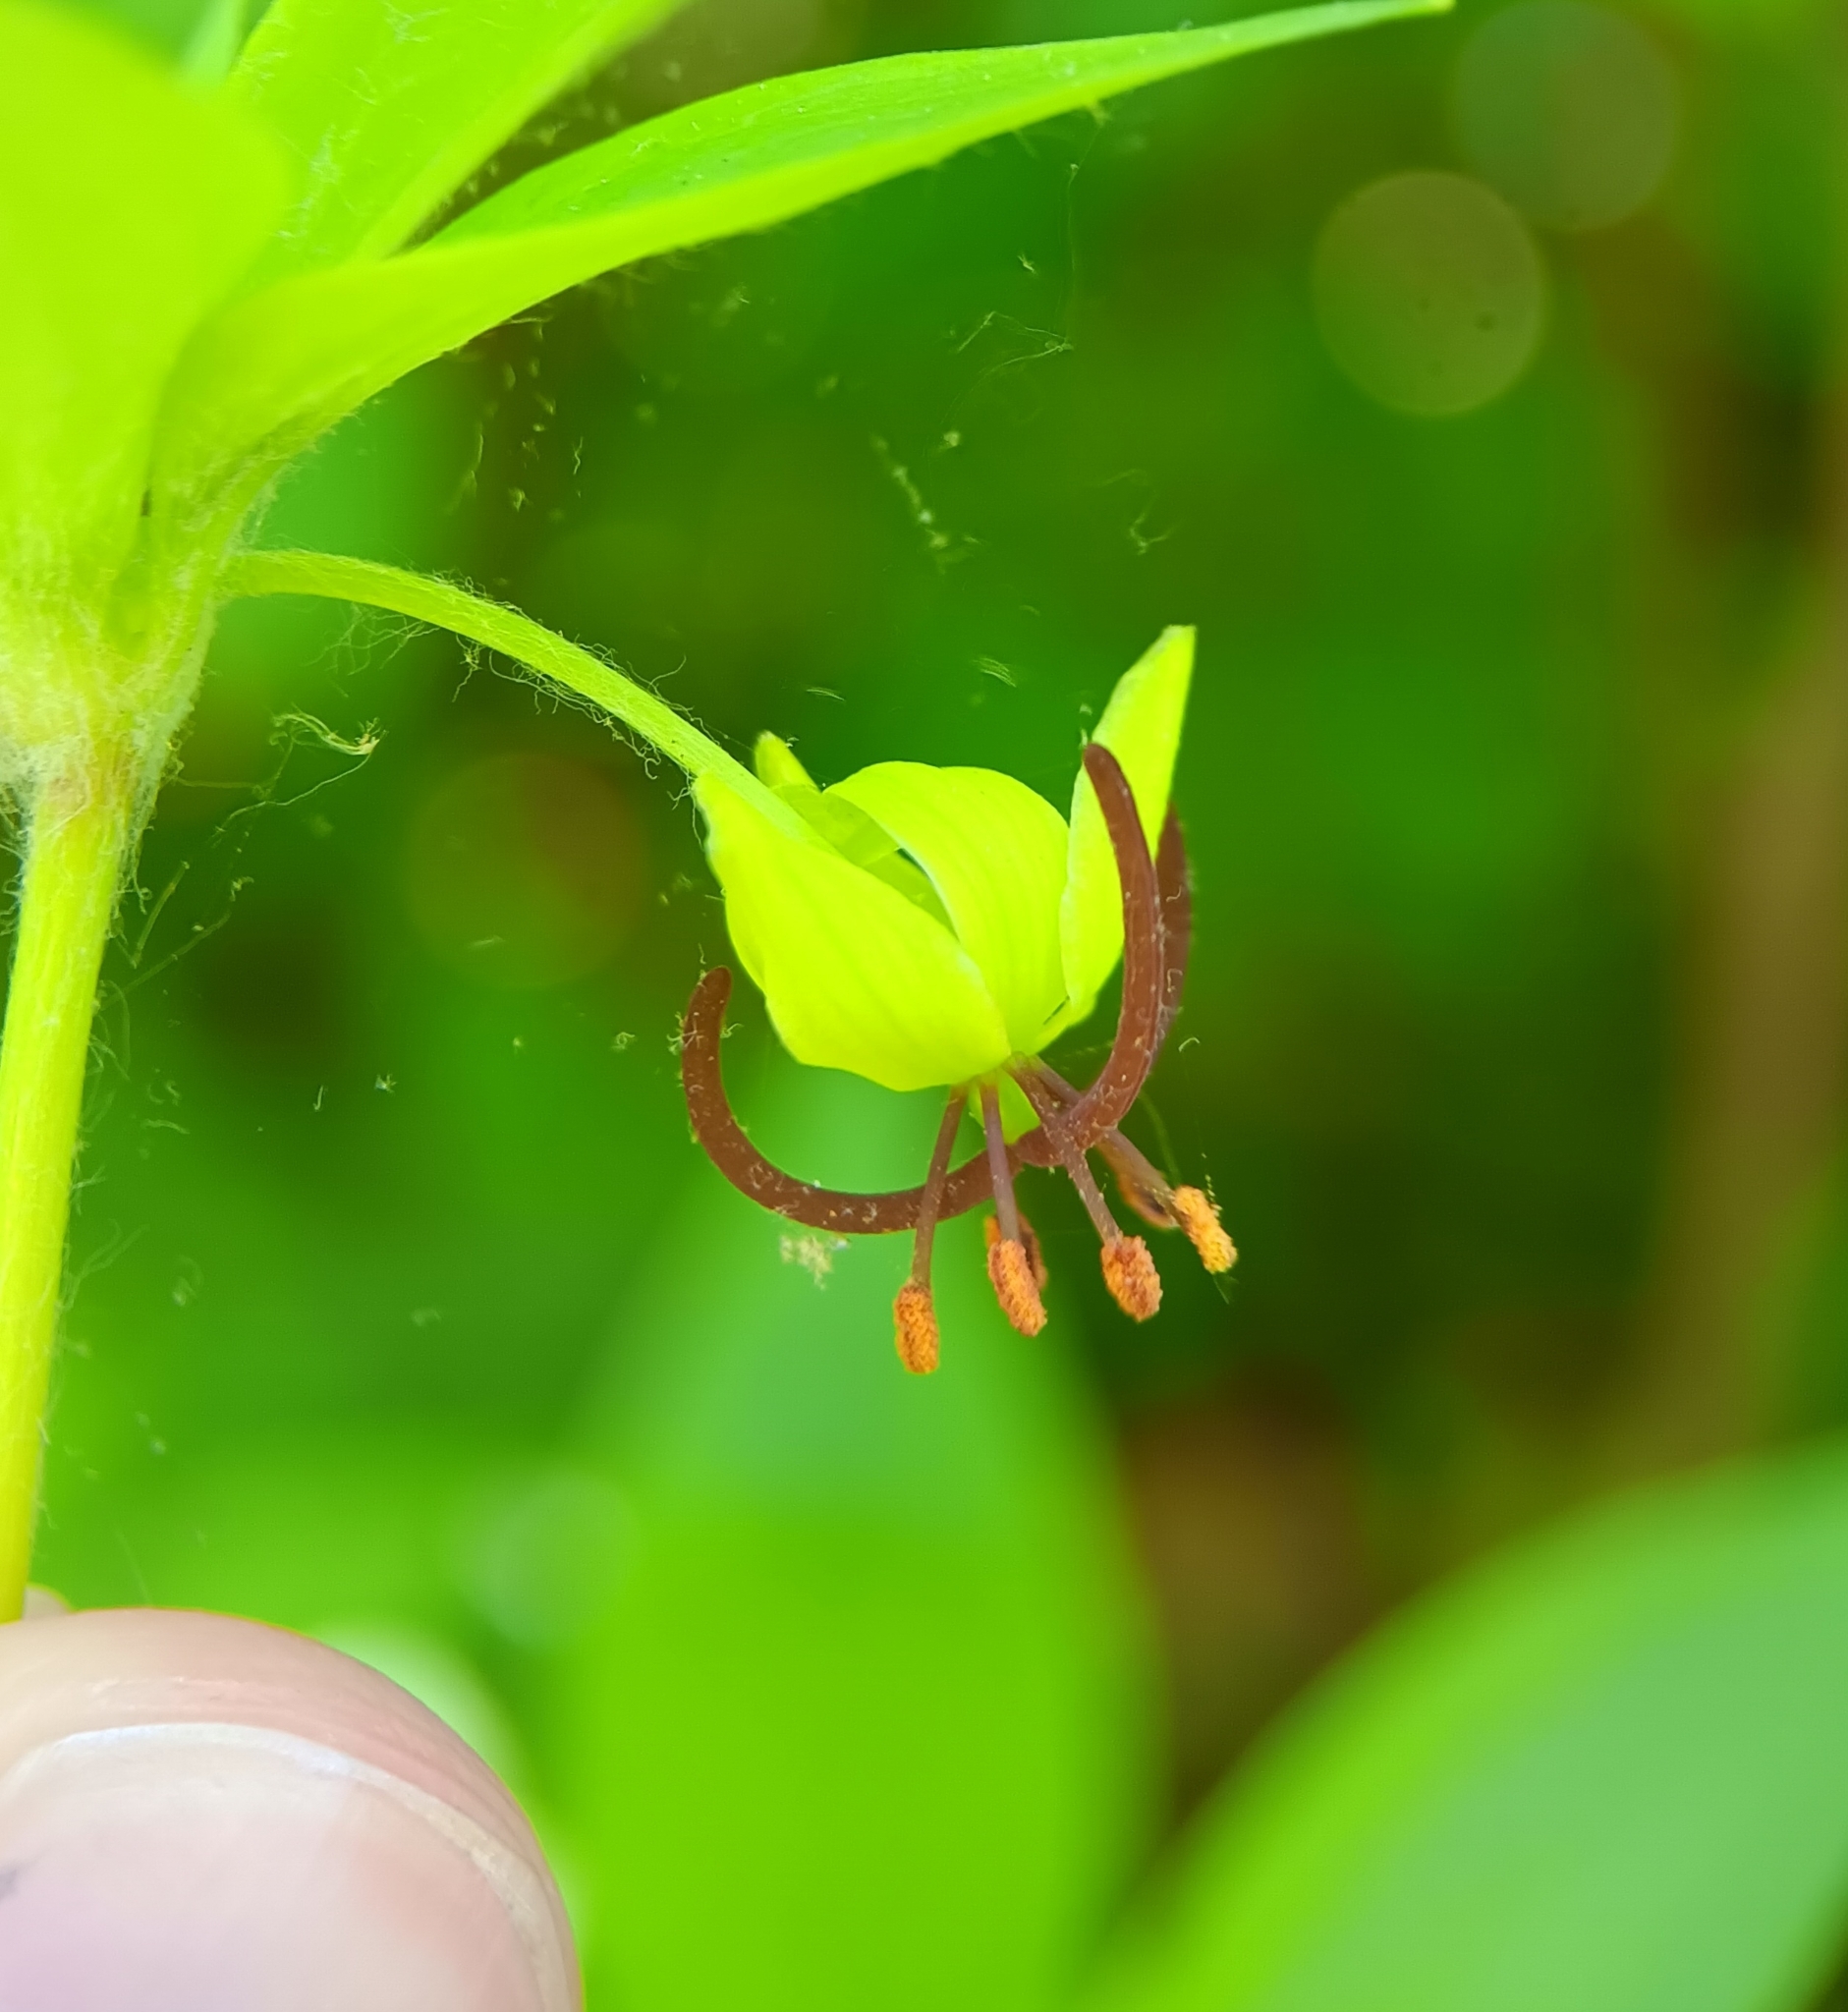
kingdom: Plantae
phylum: Tracheophyta
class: Liliopsida
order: Liliales
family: Liliaceae
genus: Medeola
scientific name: Medeola virginiana
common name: Indian cucumber-root
